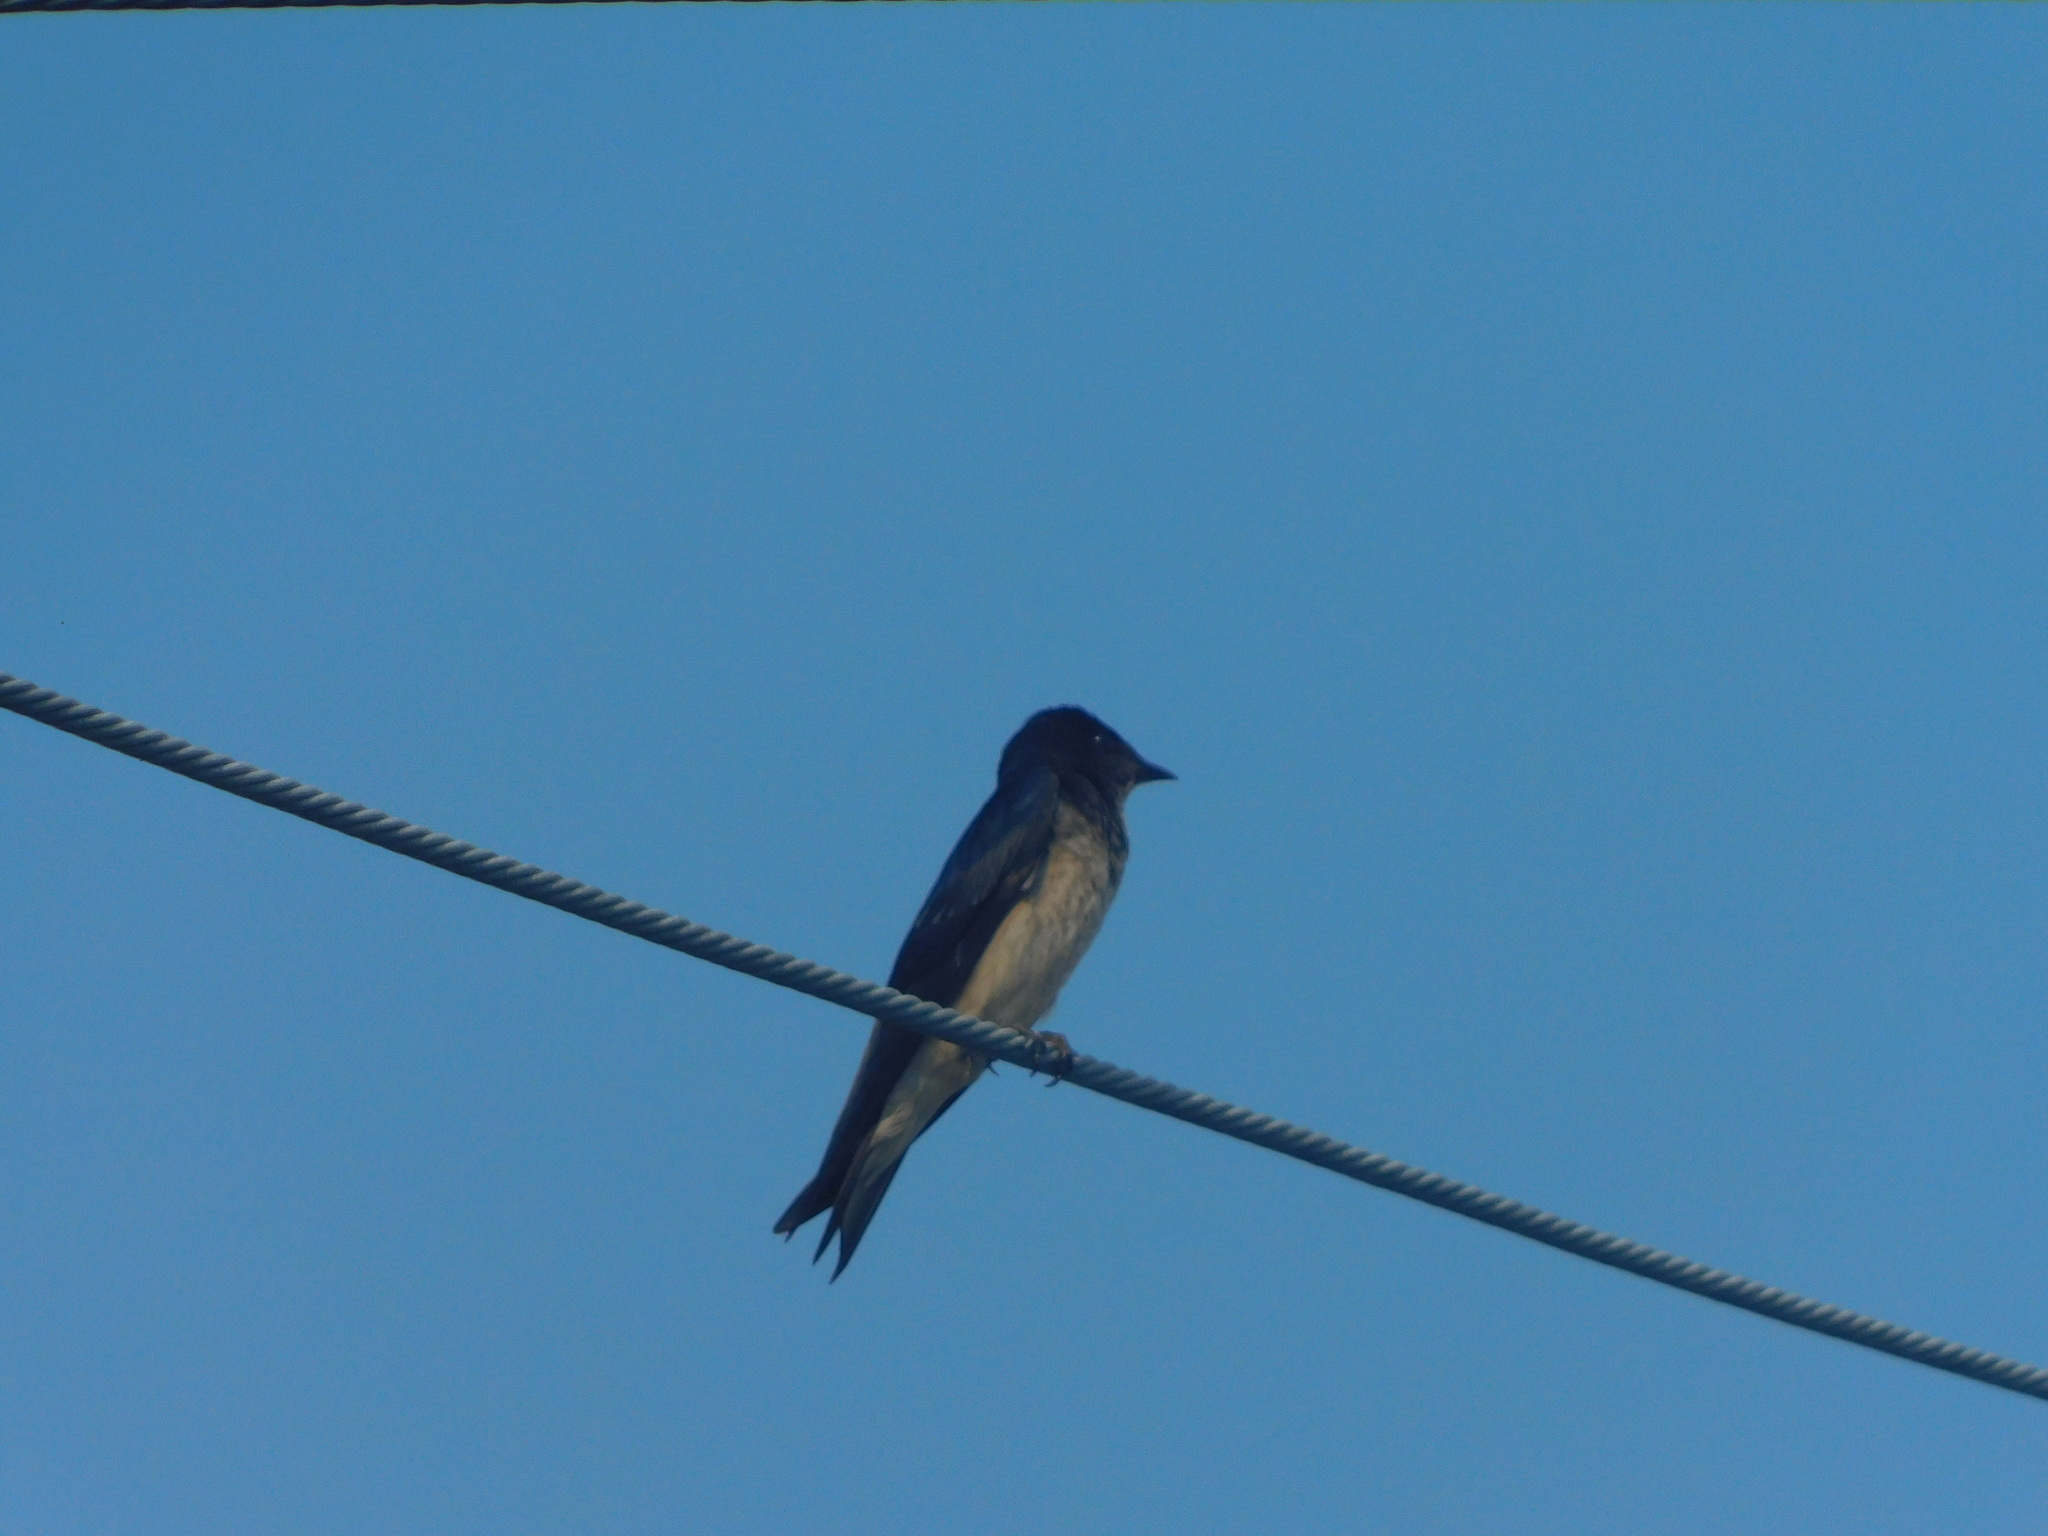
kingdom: Animalia
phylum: Chordata
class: Aves
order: Passeriformes
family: Hirundinidae
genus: Progne
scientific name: Progne chalybea
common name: Grey-breasted martin
